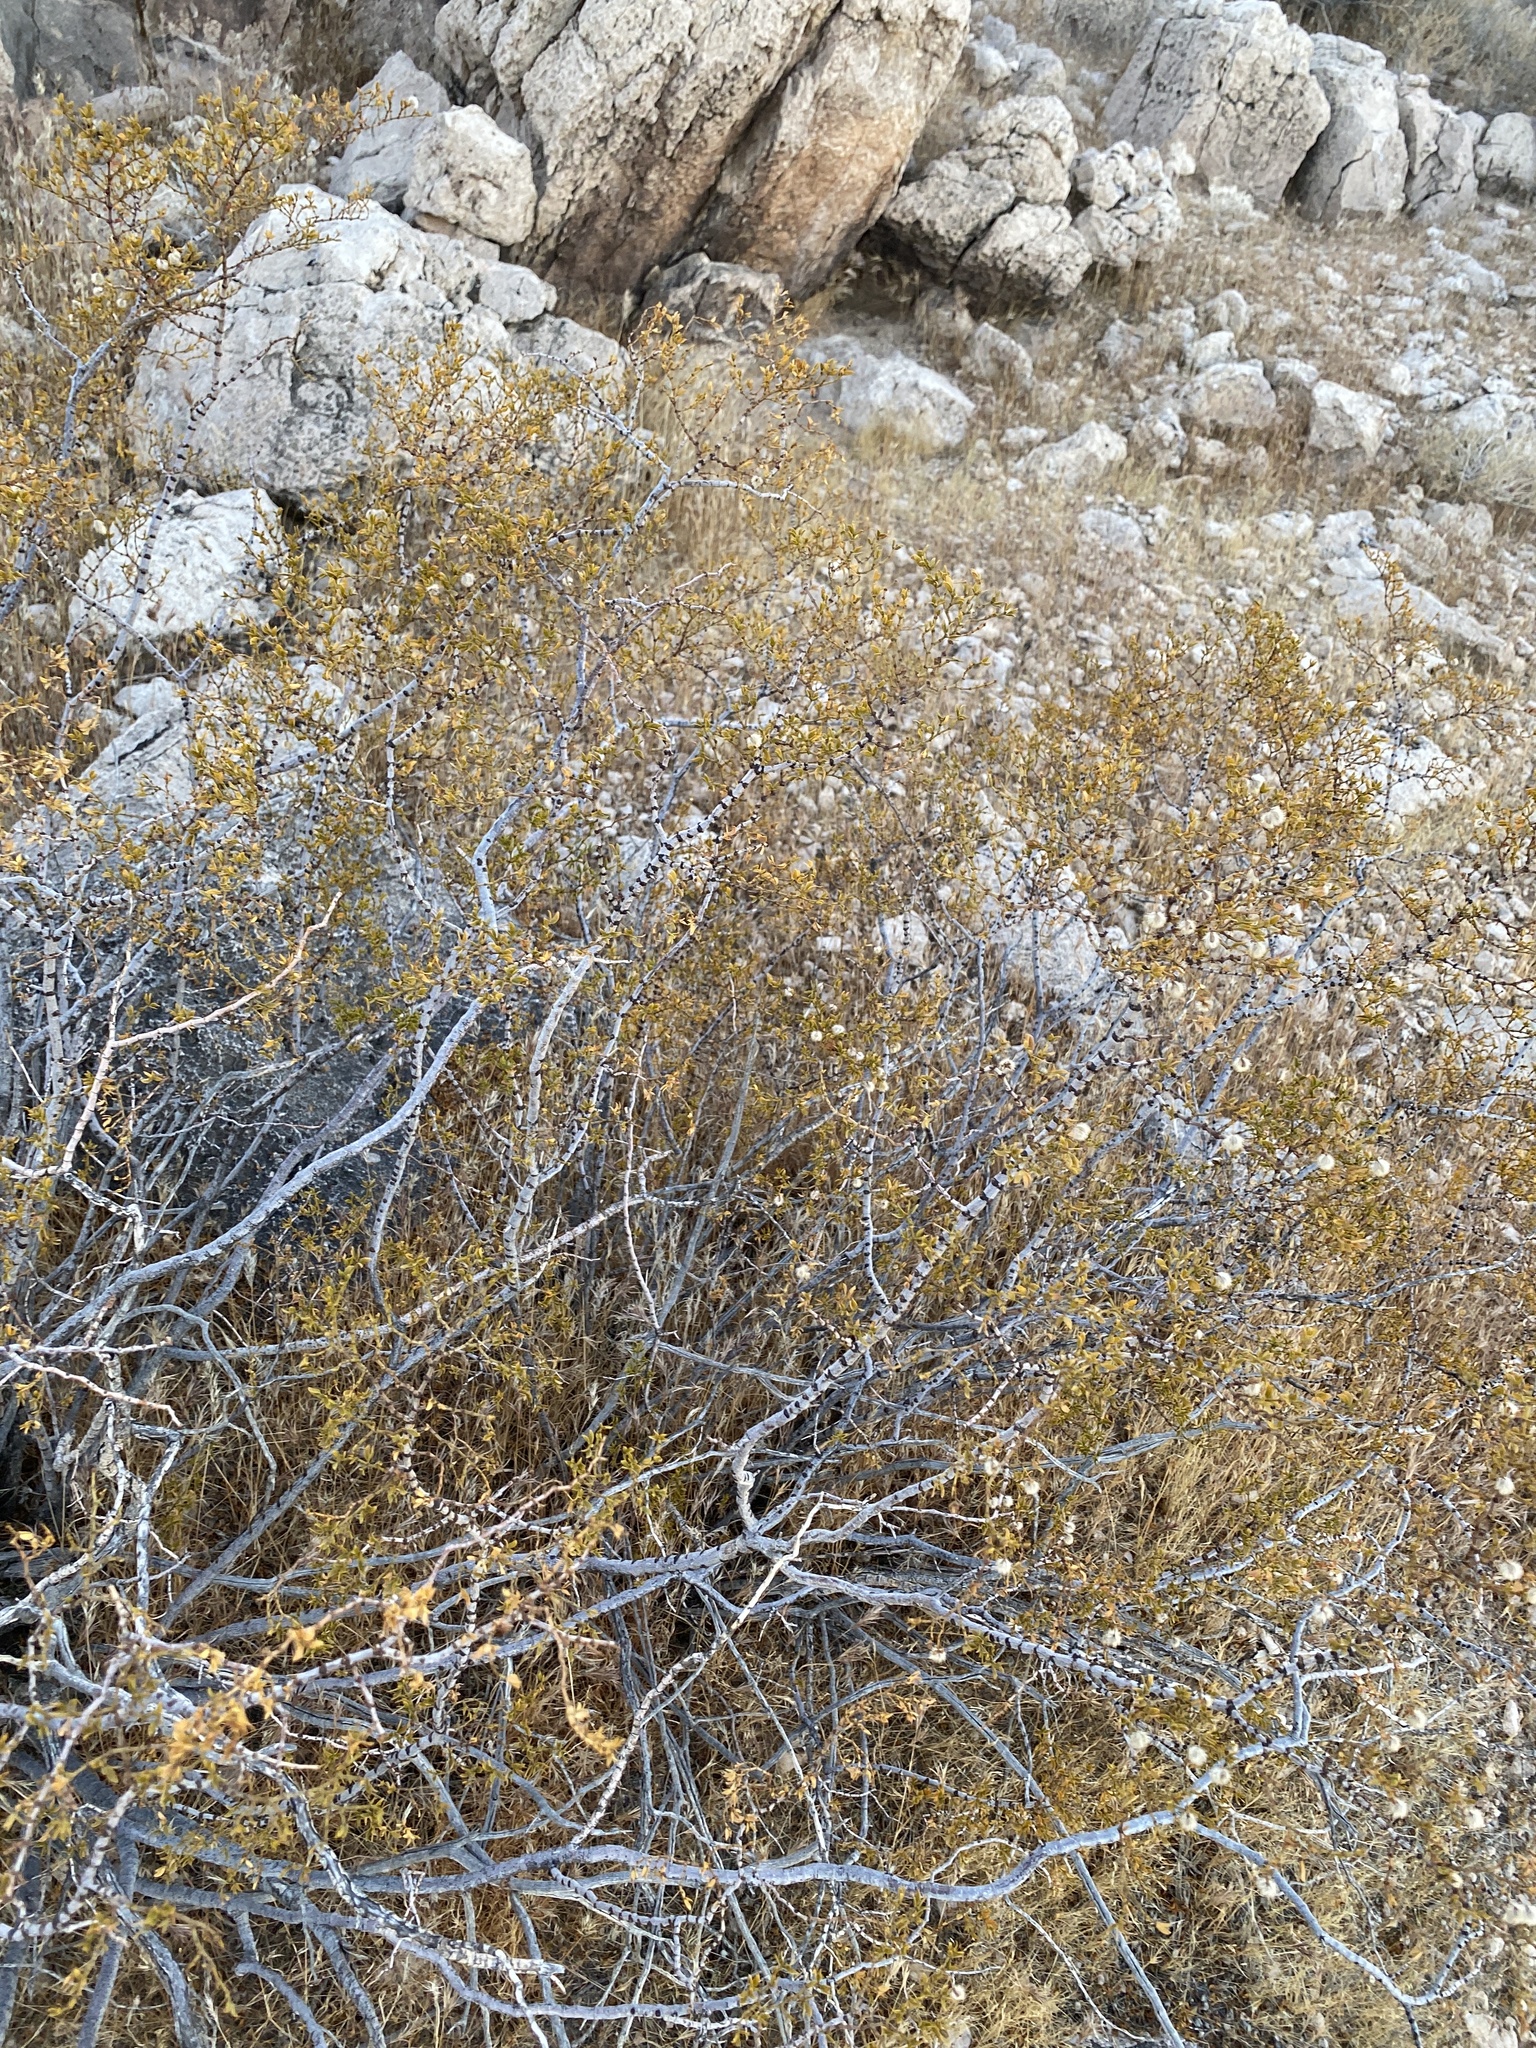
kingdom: Plantae
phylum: Tracheophyta
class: Magnoliopsida
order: Zygophyllales
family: Zygophyllaceae
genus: Larrea
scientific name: Larrea tridentata
